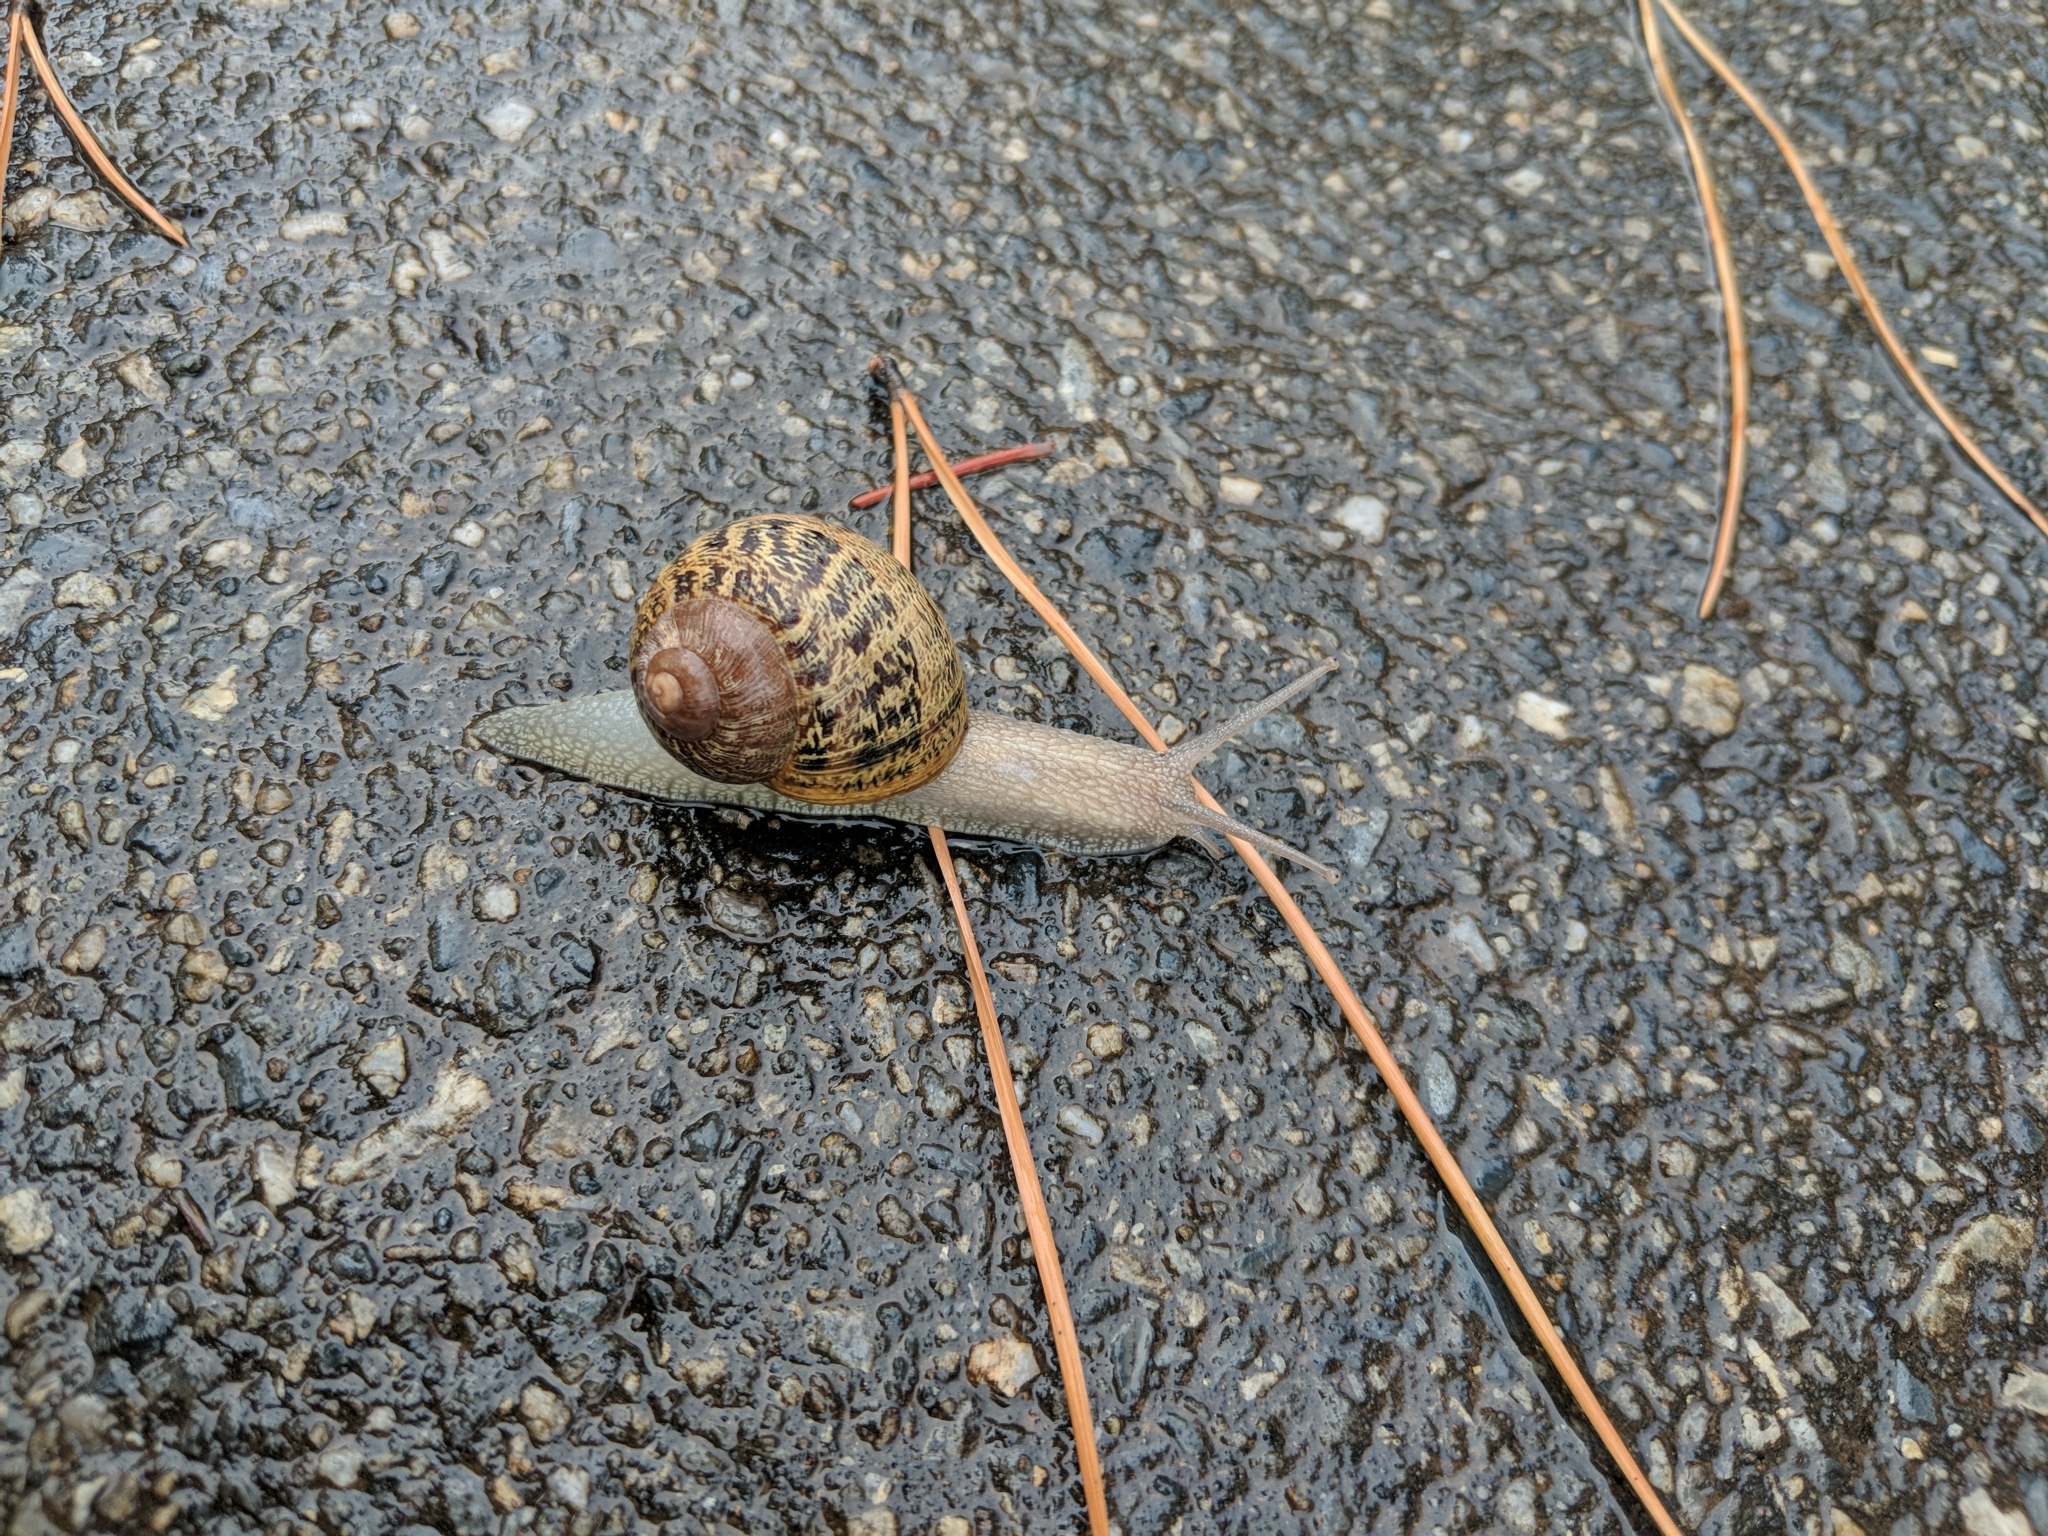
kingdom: Animalia
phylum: Mollusca
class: Gastropoda
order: Stylommatophora
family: Helicidae
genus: Cornu
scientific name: Cornu aspersum
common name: Brown garden snail
